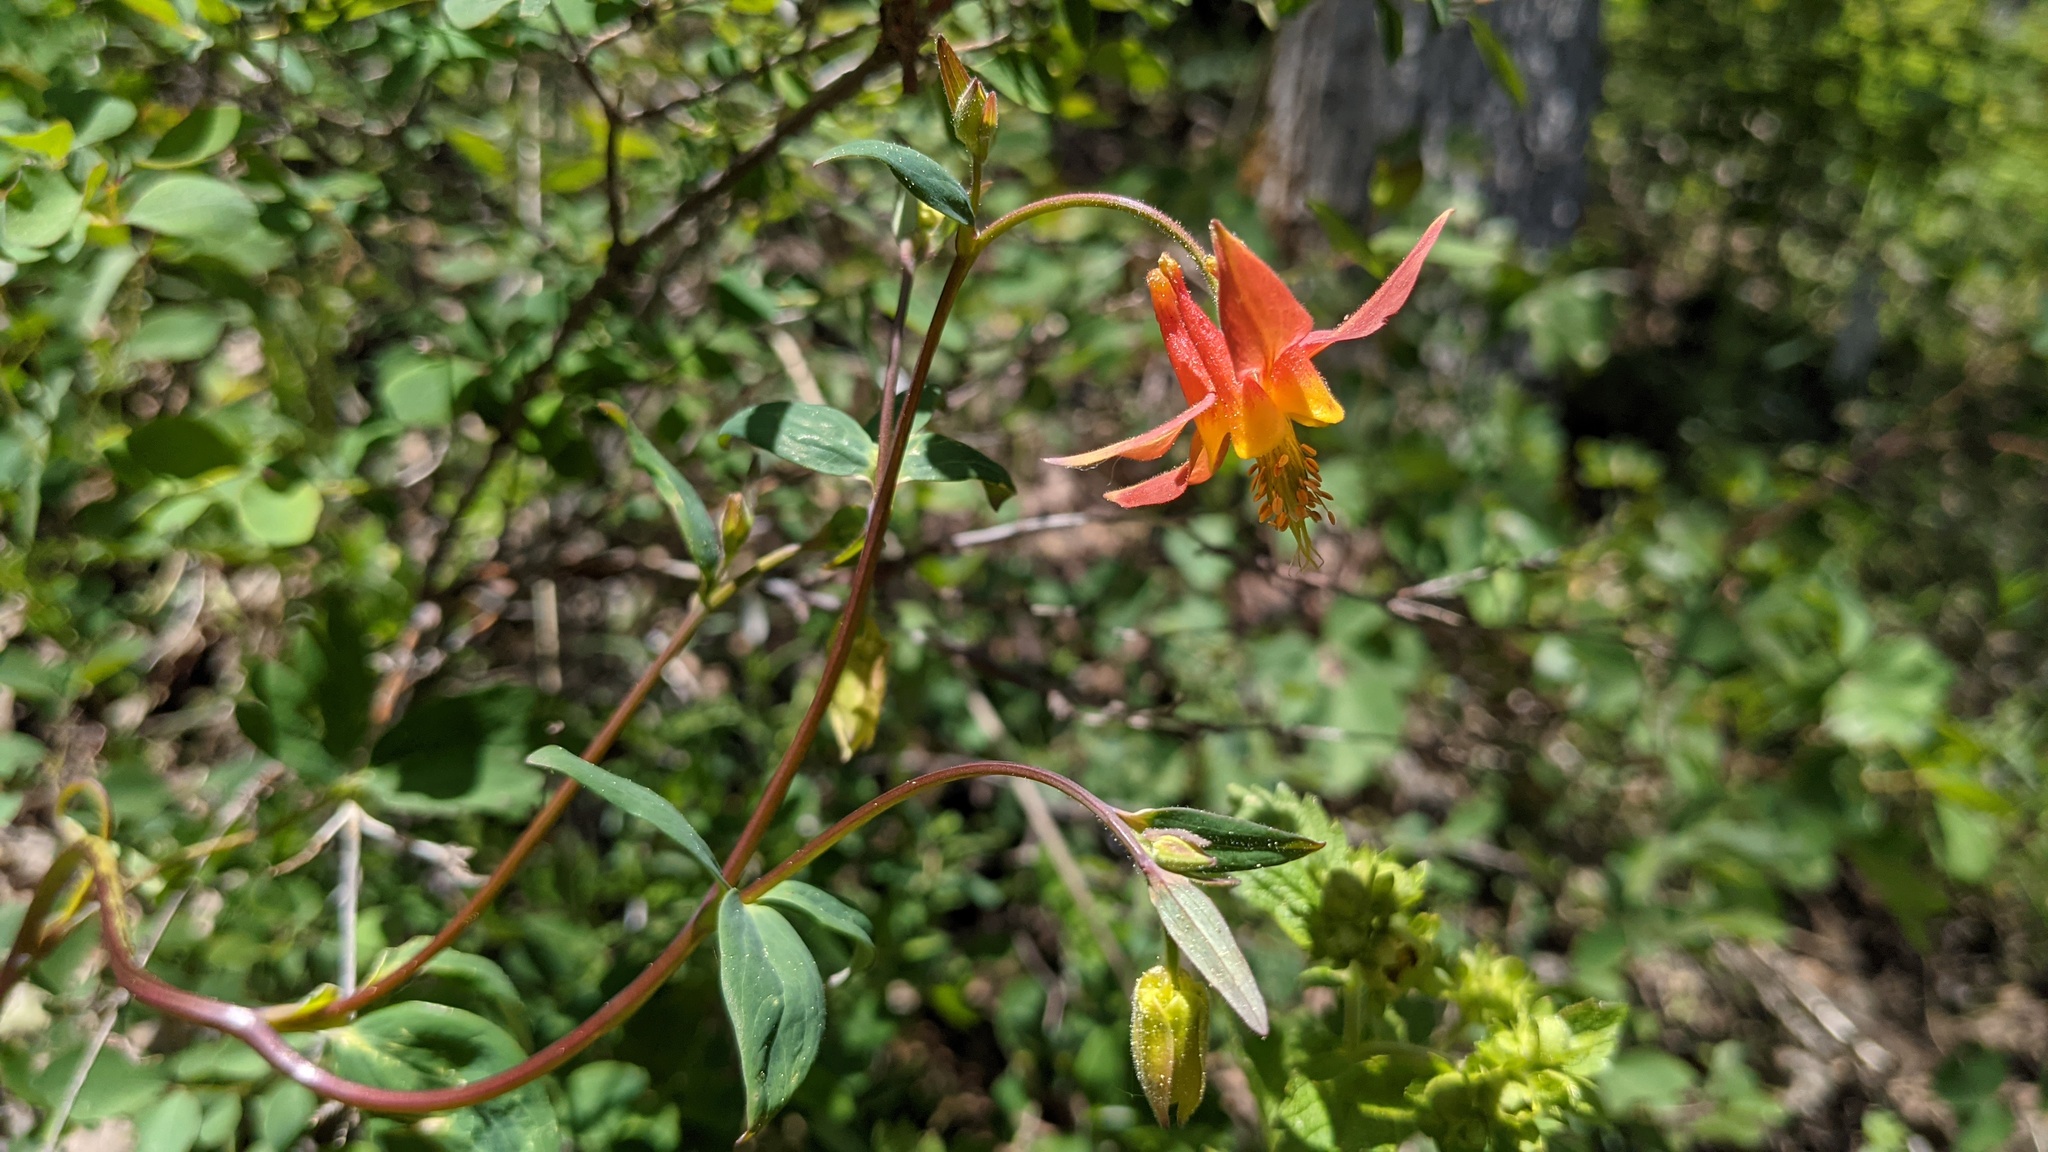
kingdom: Plantae
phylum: Tracheophyta
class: Magnoliopsida
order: Ranunculales
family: Ranunculaceae
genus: Aquilegia
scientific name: Aquilegia formosa
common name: Sitka columbine
